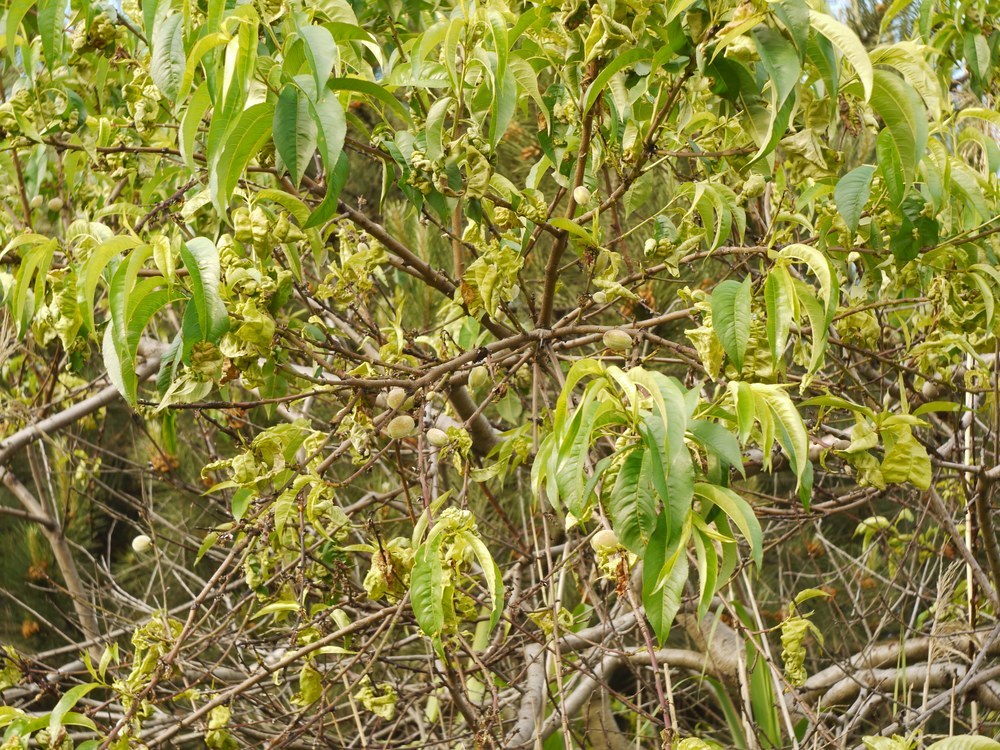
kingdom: Plantae
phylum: Tracheophyta
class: Magnoliopsida
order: Rosales
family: Rosaceae
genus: Prunus
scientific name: Prunus persica
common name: Peach
